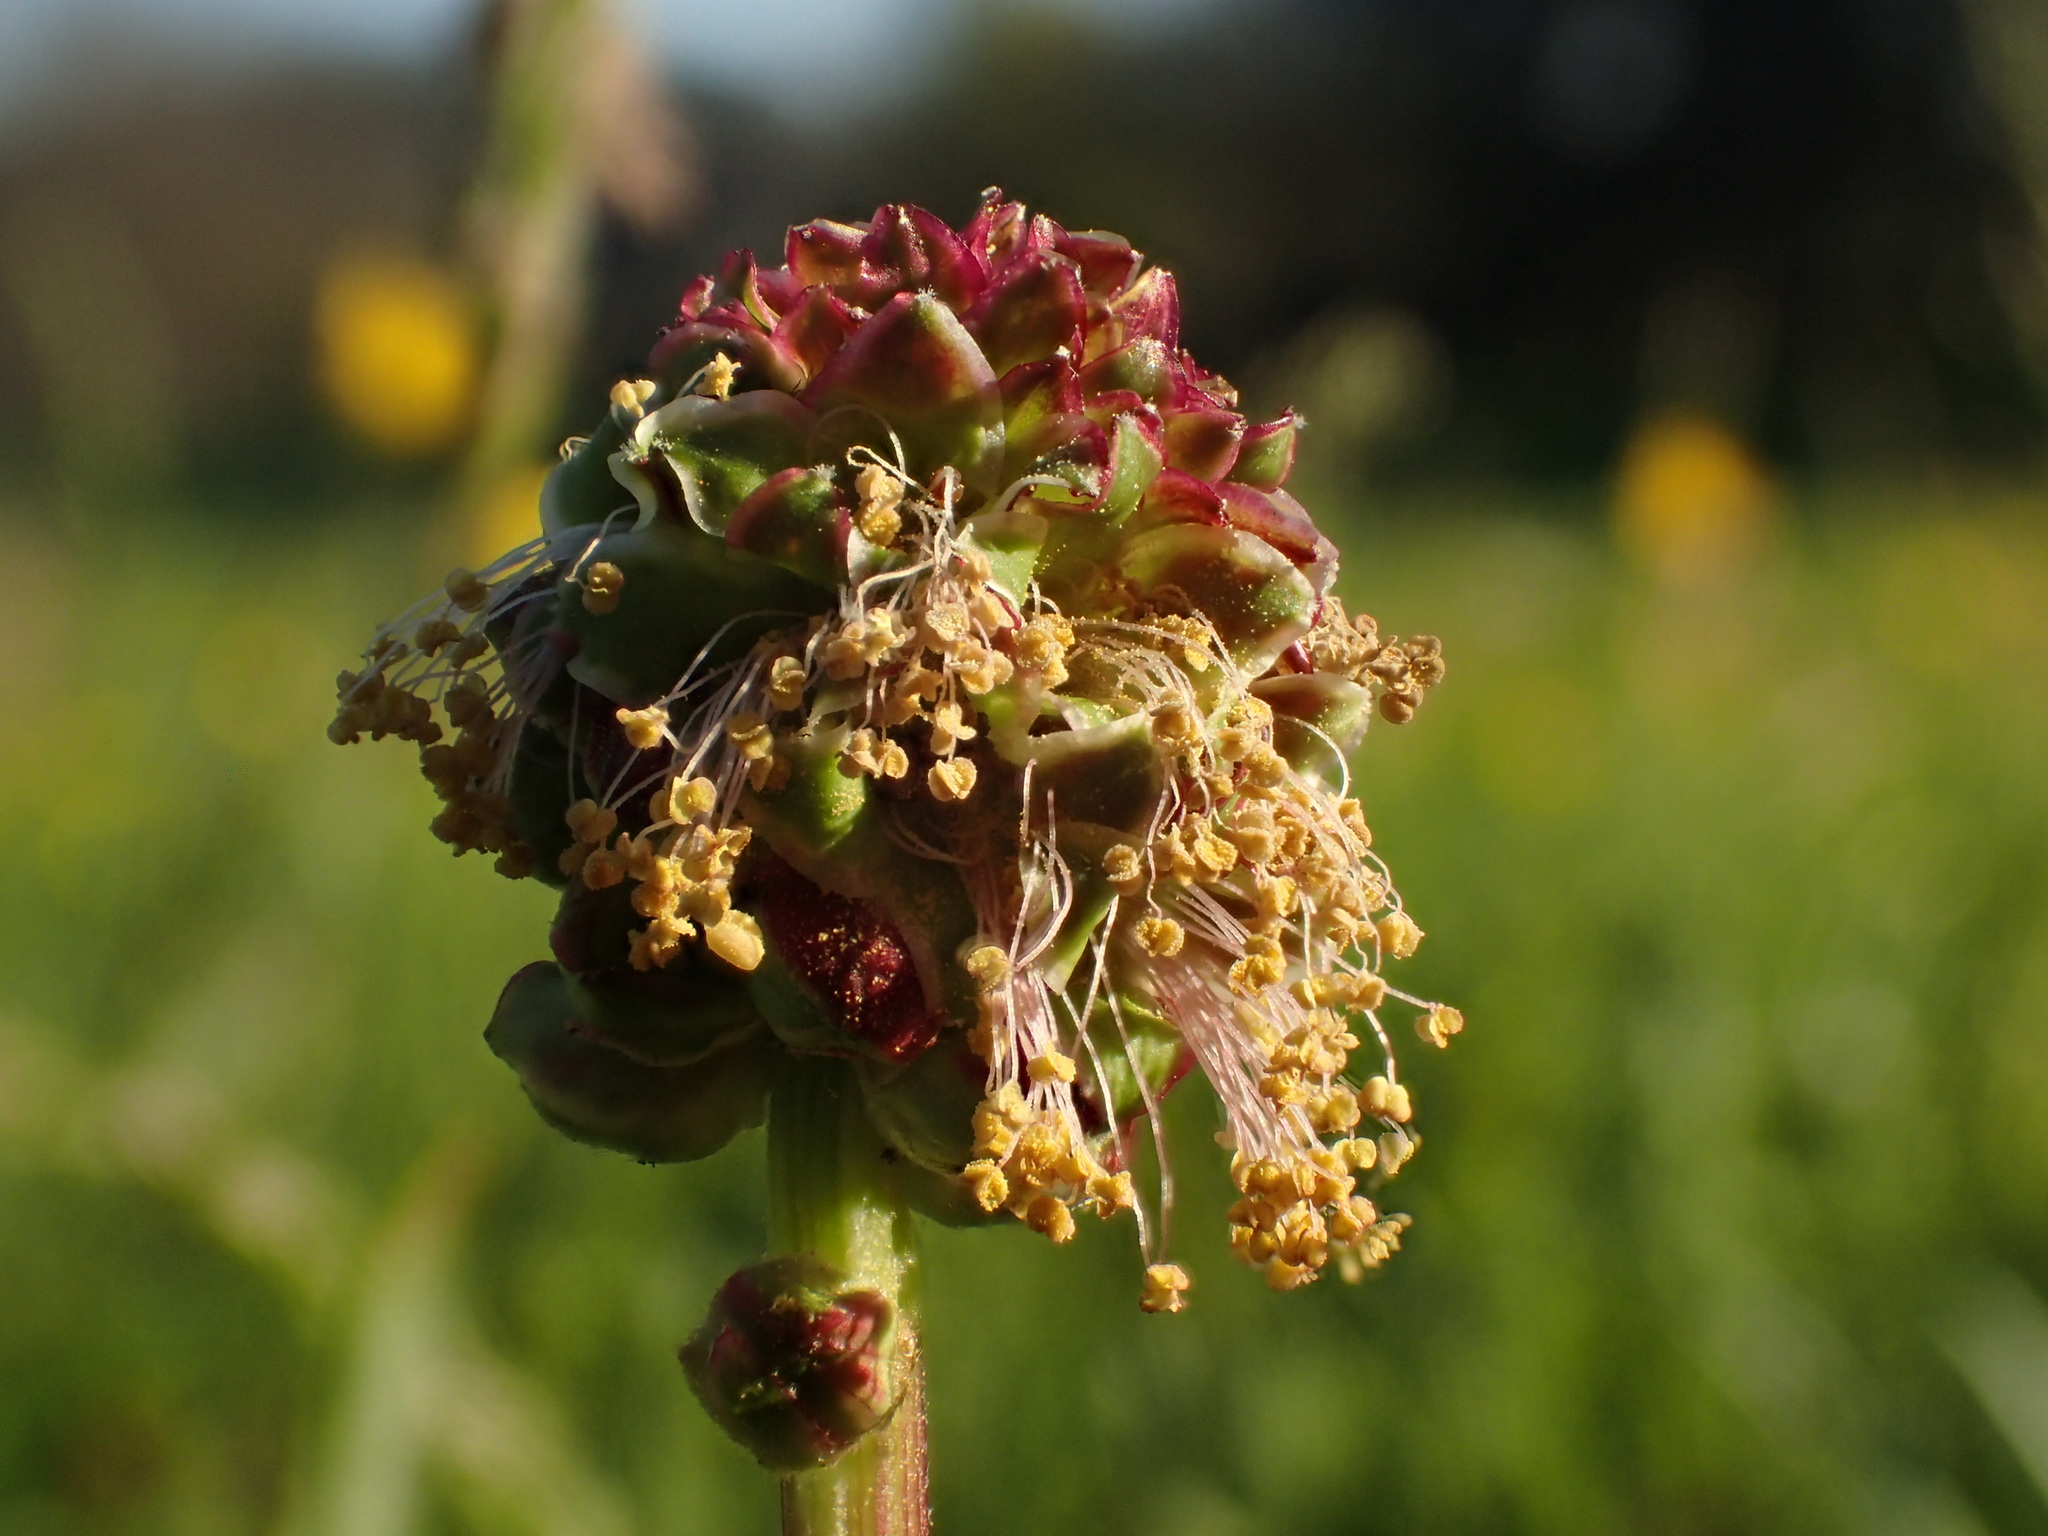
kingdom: Plantae
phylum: Tracheophyta
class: Magnoliopsida
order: Rosales
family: Rosaceae
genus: Poterium
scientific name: Poterium sanguisorba
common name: Salad burnet
